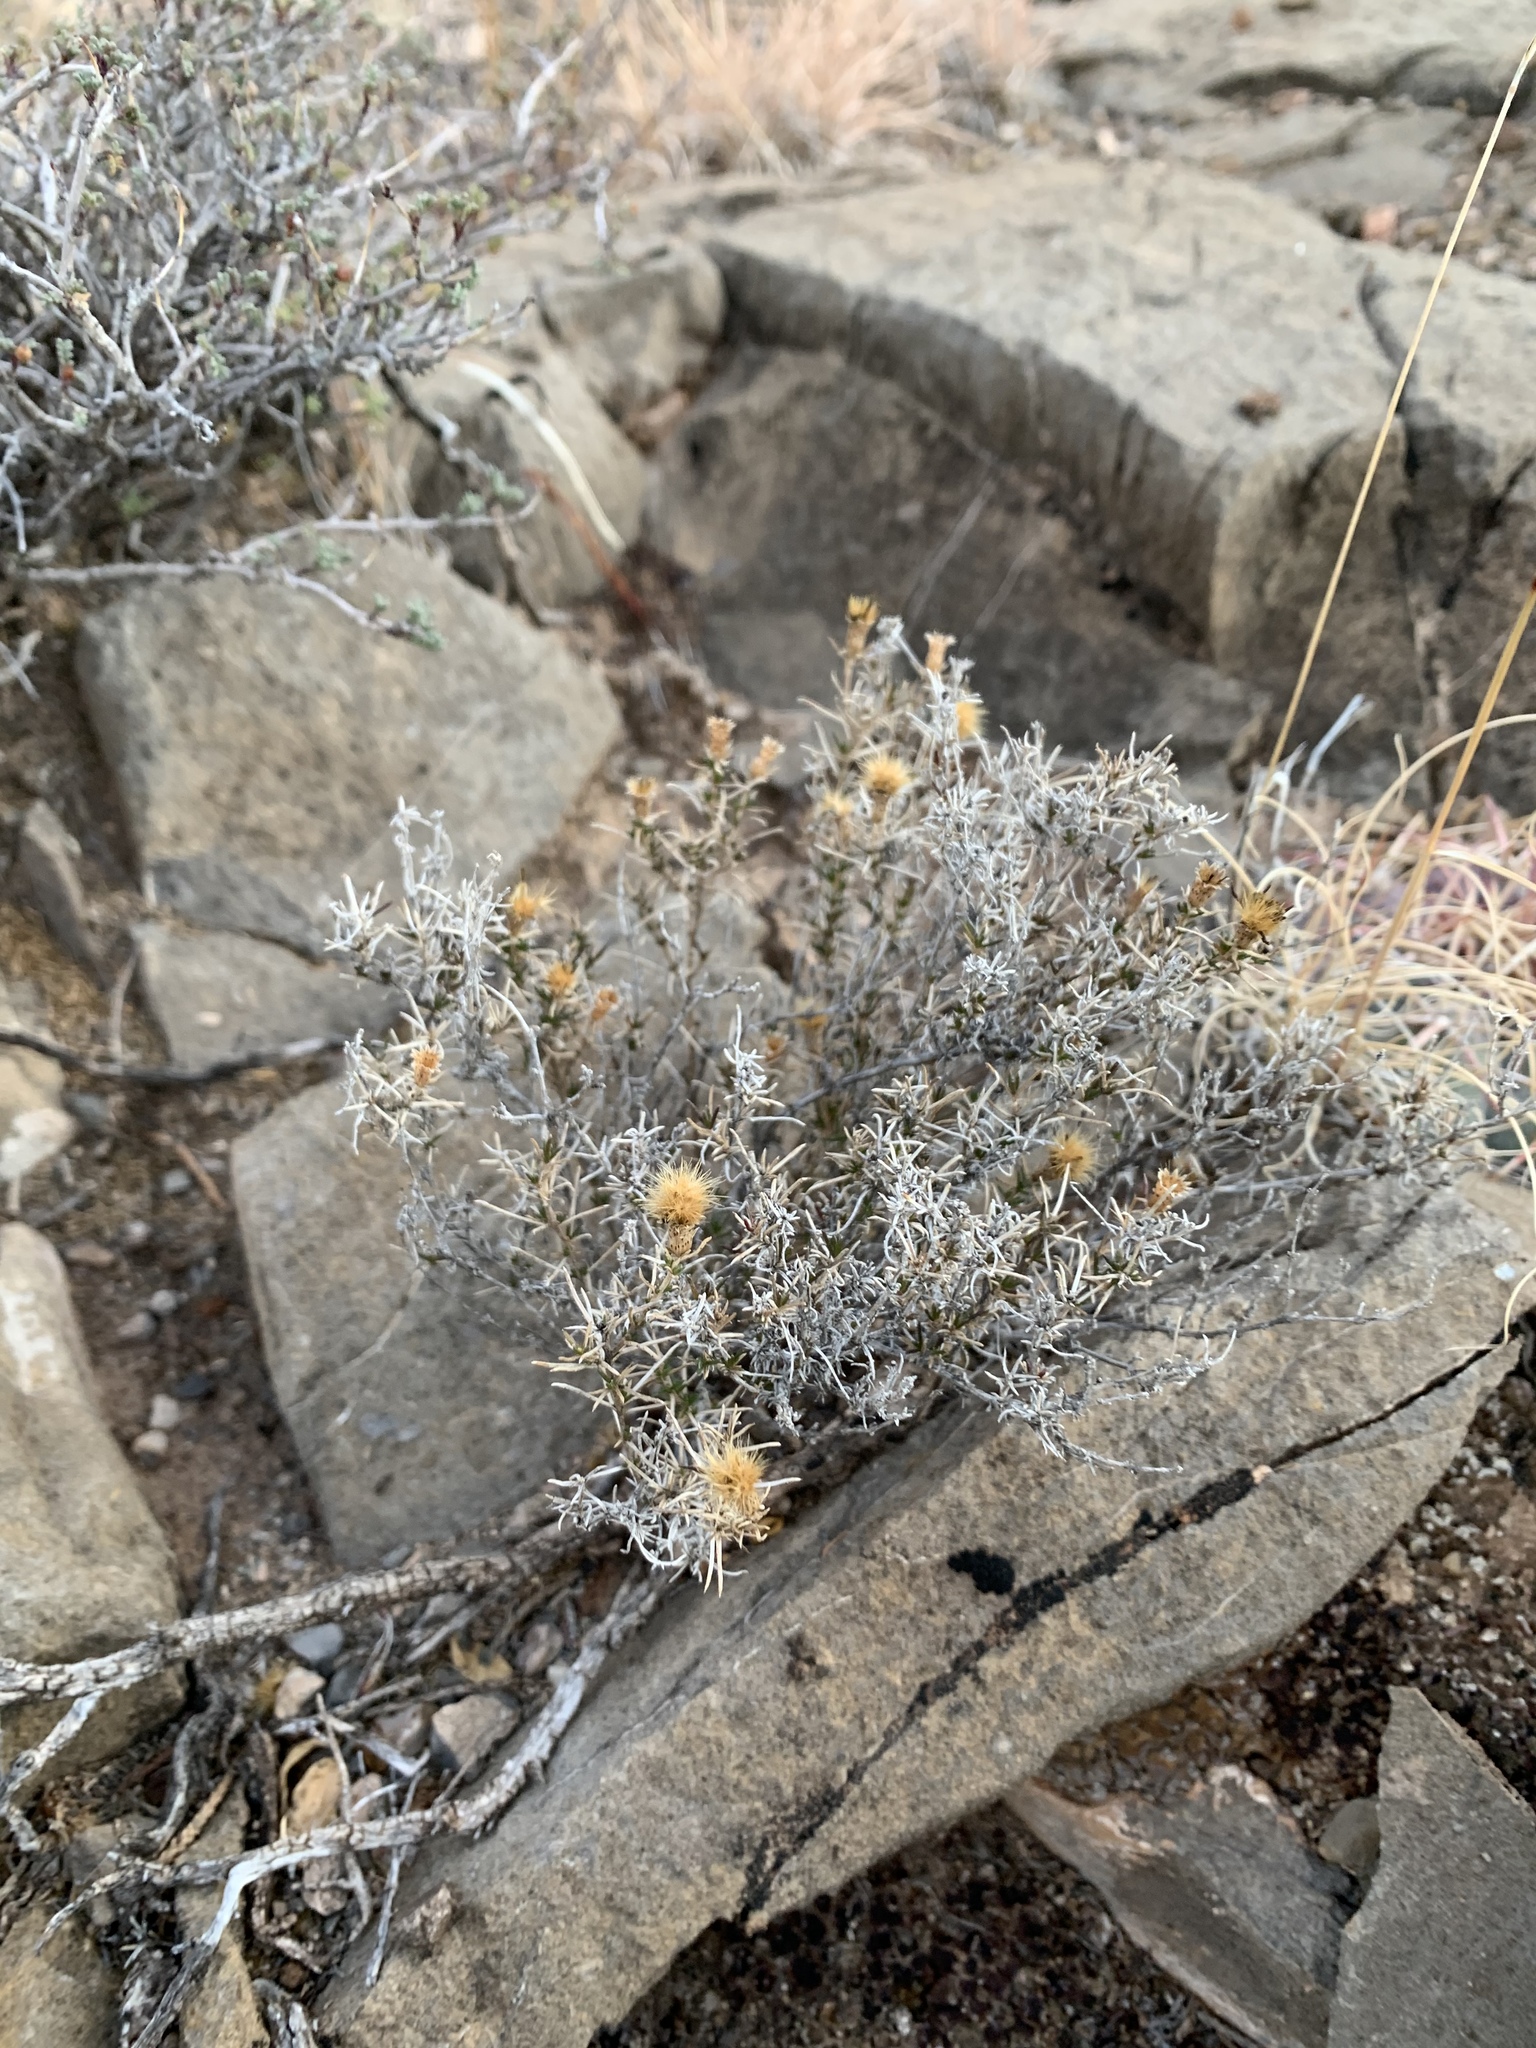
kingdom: Plantae
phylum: Tracheophyta
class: Magnoliopsida
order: Asterales
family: Asteraceae
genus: Thymophylla
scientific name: Thymophylla acerosa
